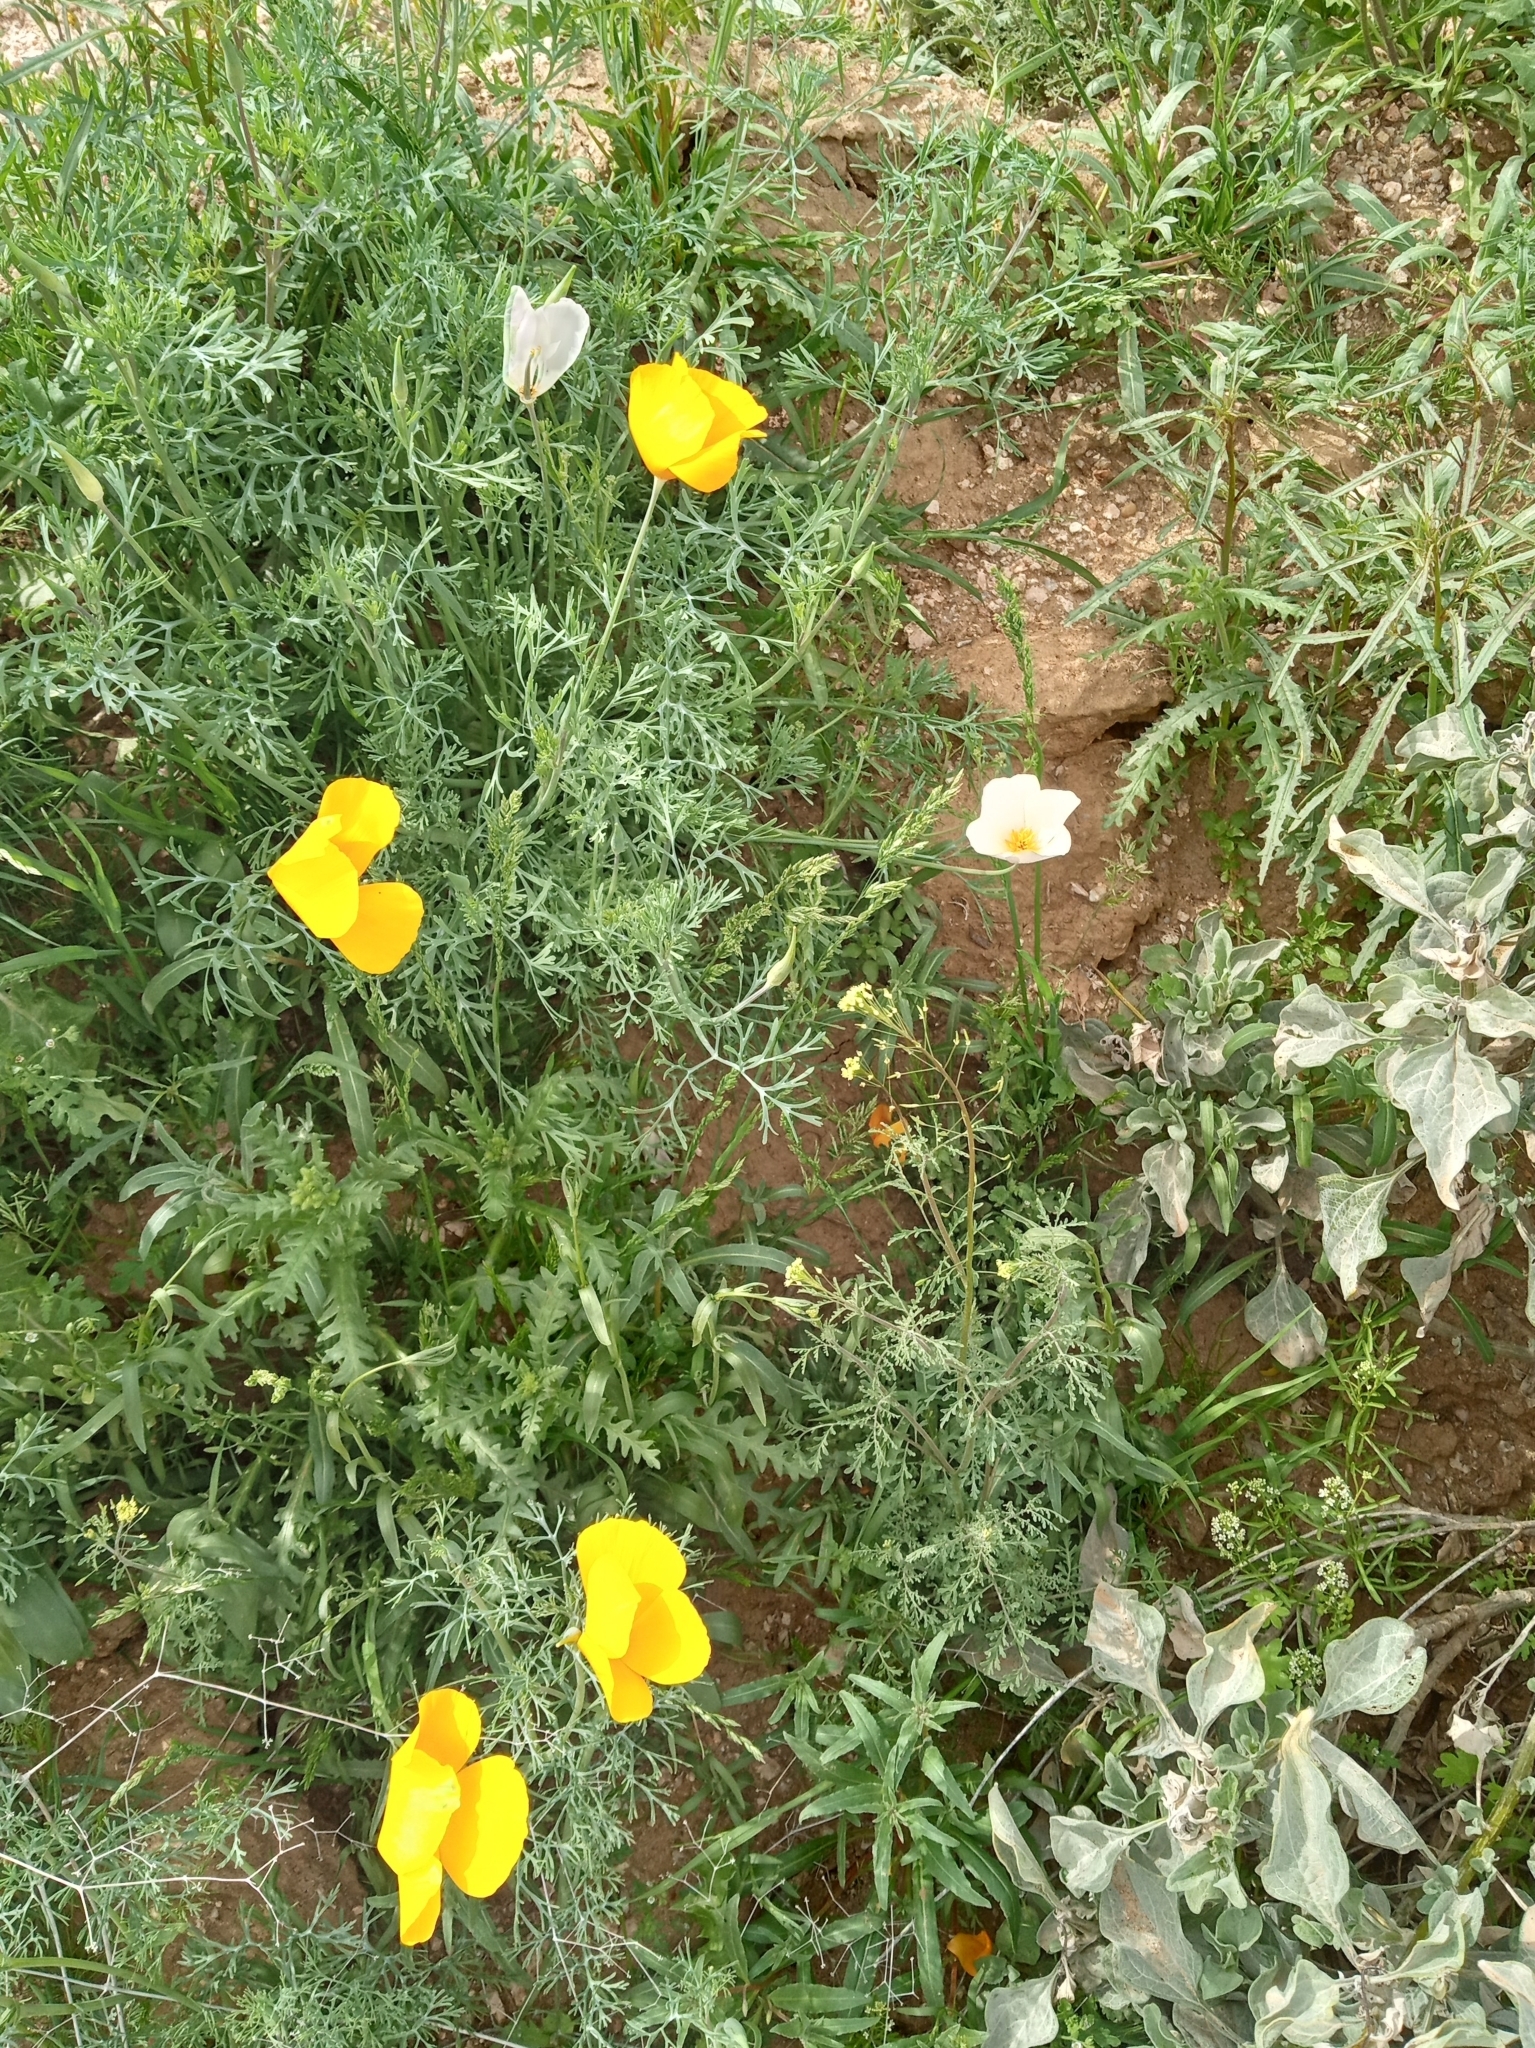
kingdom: Plantae
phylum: Tracheophyta
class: Magnoliopsida
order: Ranunculales
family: Papaveraceae
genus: Eschscholzia
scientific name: Eschscholzia californica
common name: California poppy
